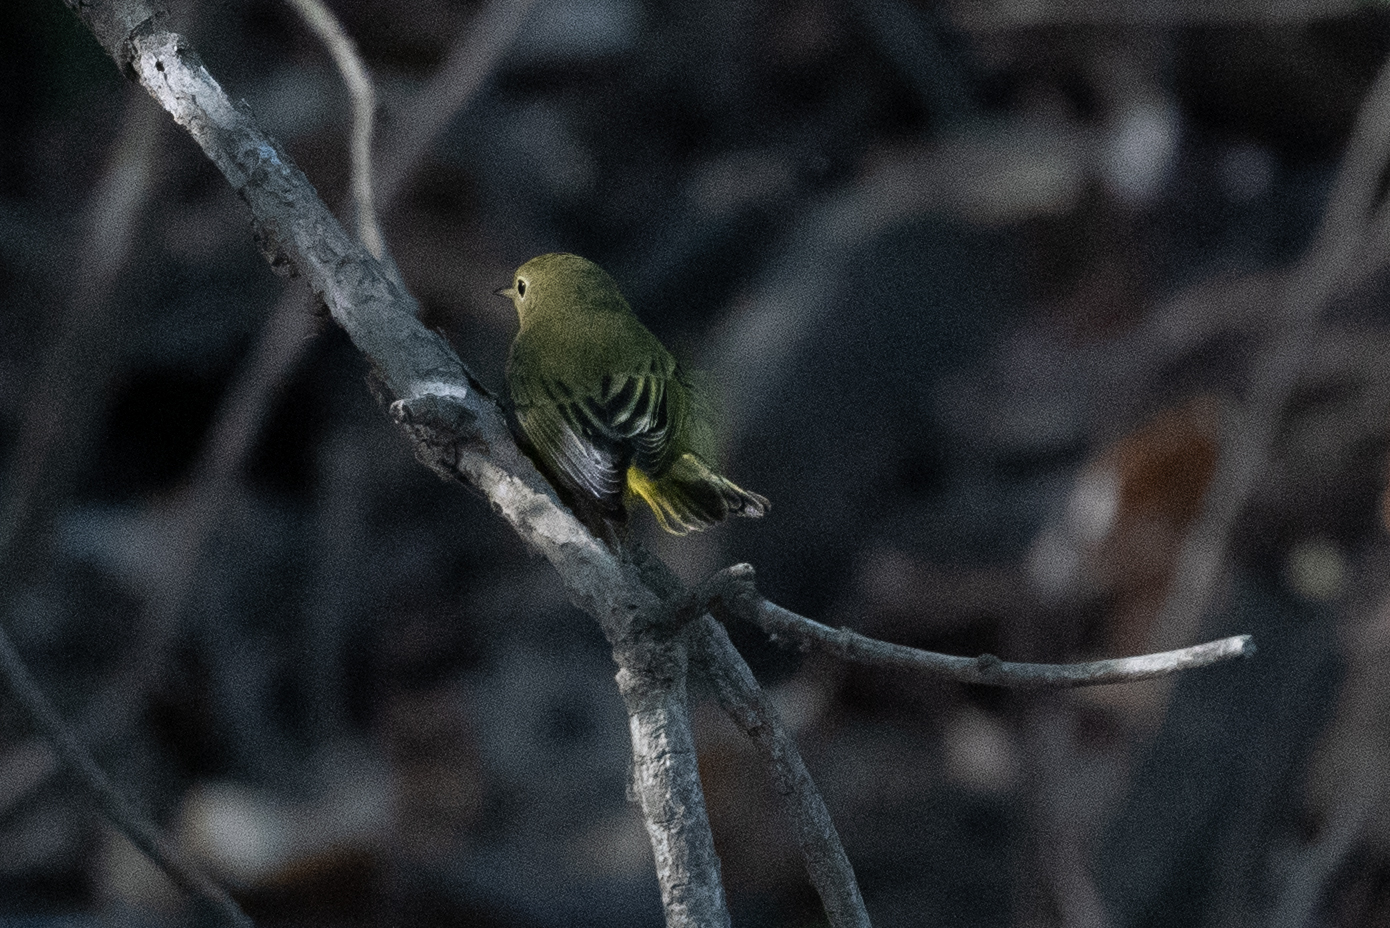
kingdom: Animalia
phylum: Chordata
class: Aves
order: Passeriformes
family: Parulidae
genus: Setophaga
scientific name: Setophaga petechia
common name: Yellow warbler
